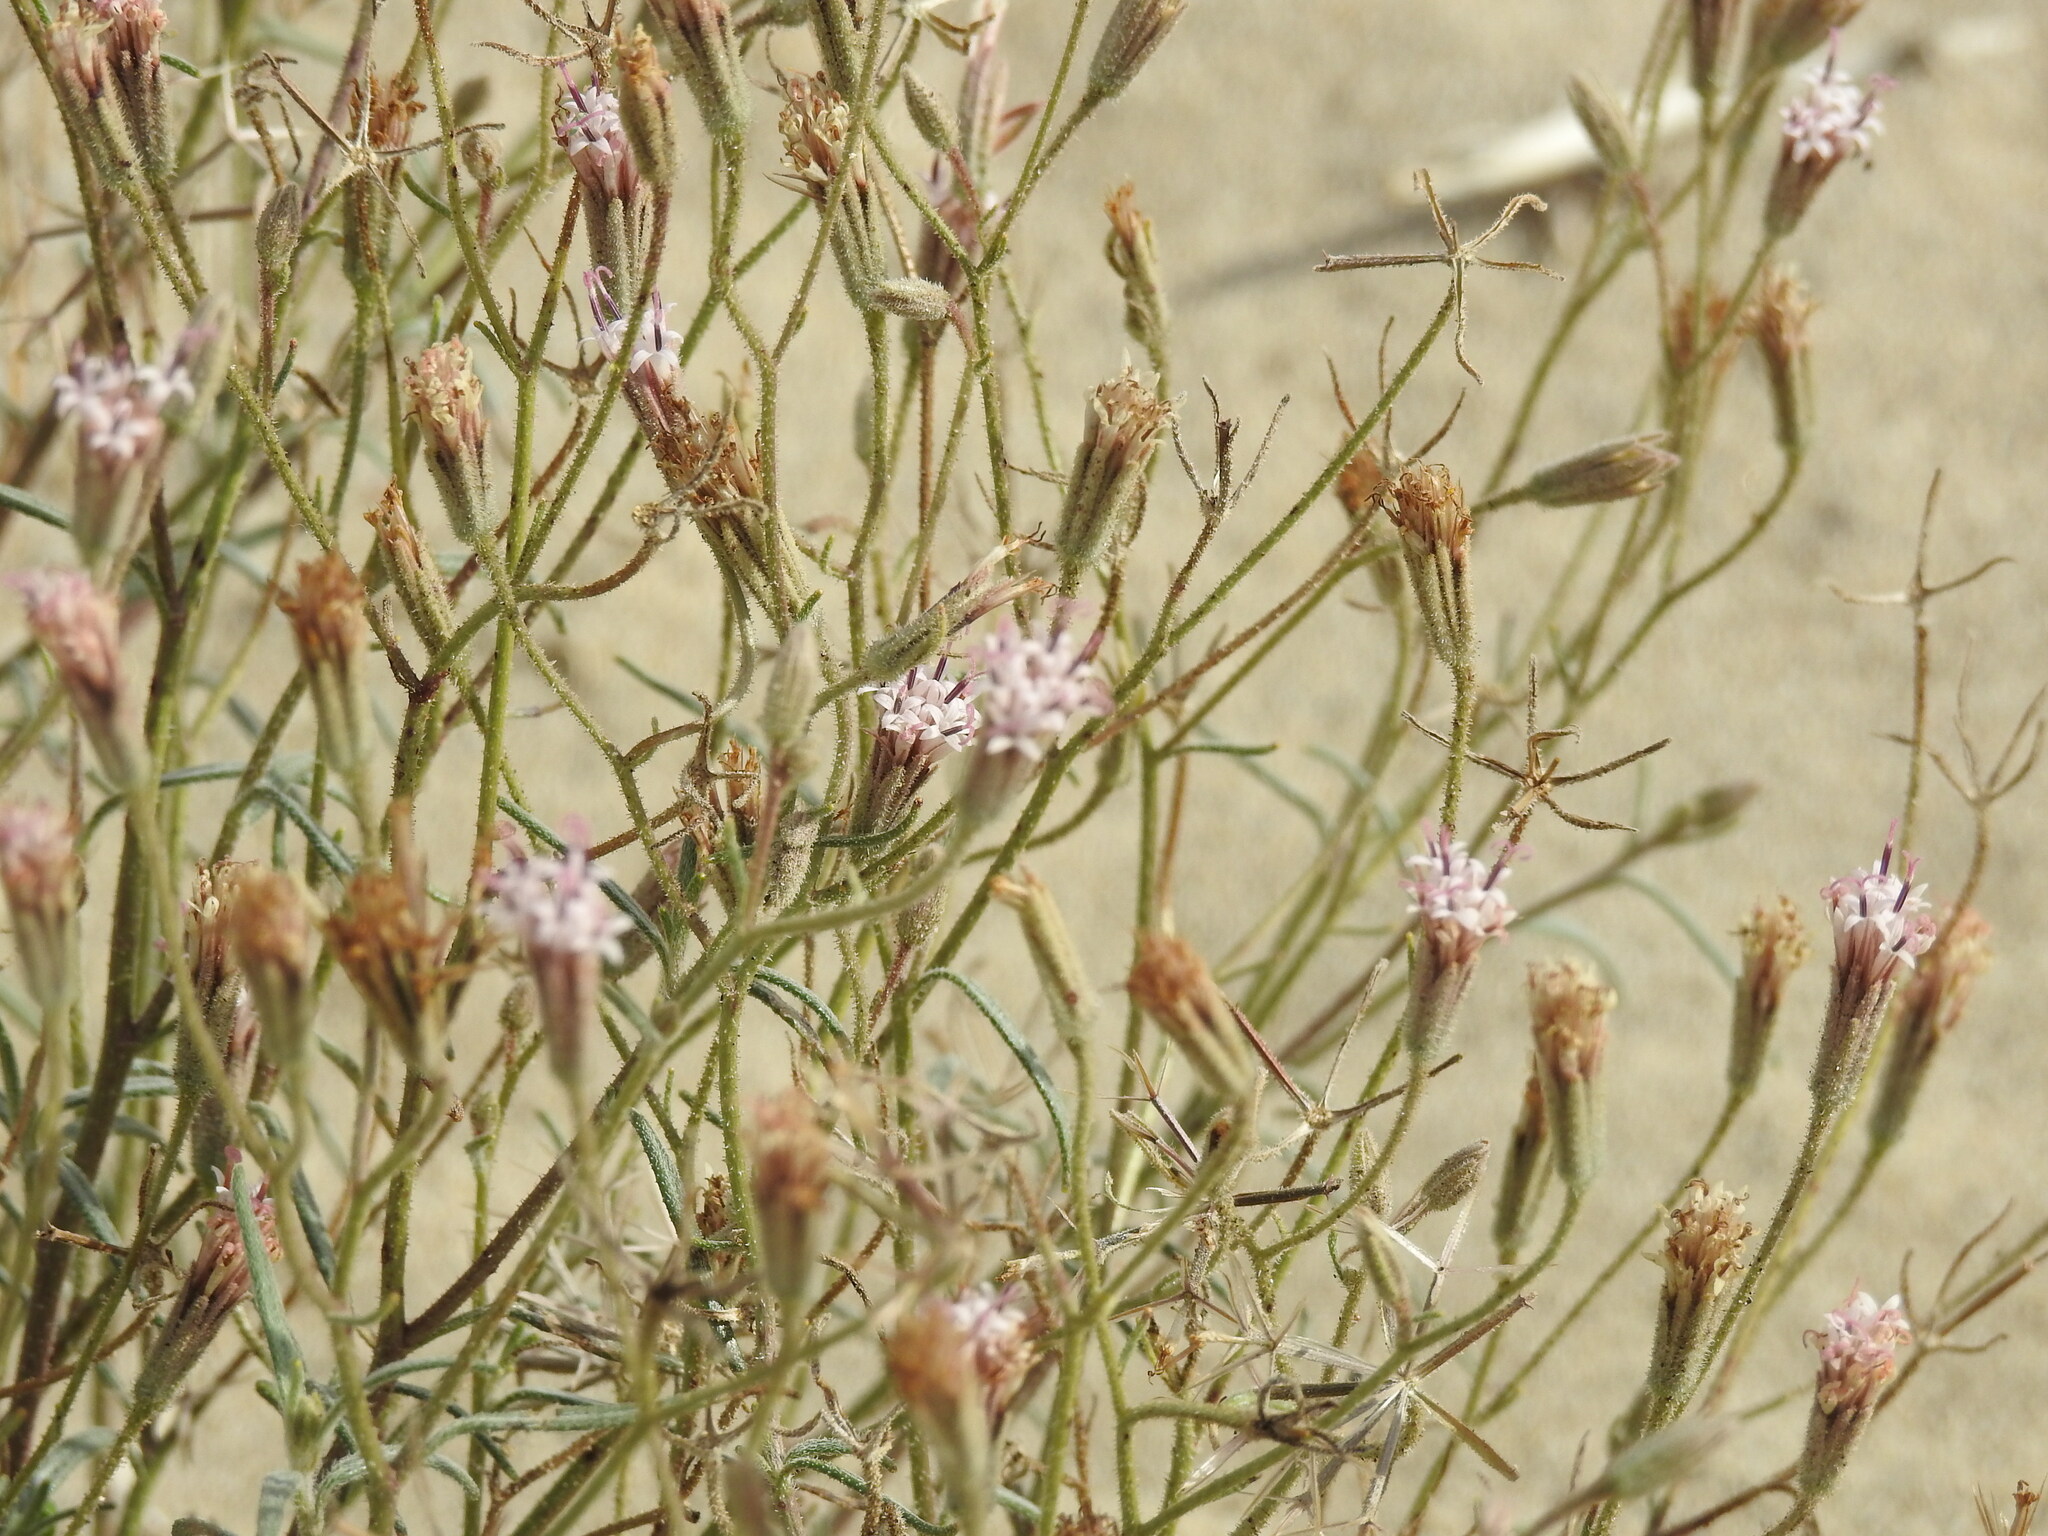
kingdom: Plantae
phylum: Tracheophyta
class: Magnoliopsida
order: Asterales
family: Asteraceae
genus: Palafoxia
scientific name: Palafoxia arida
